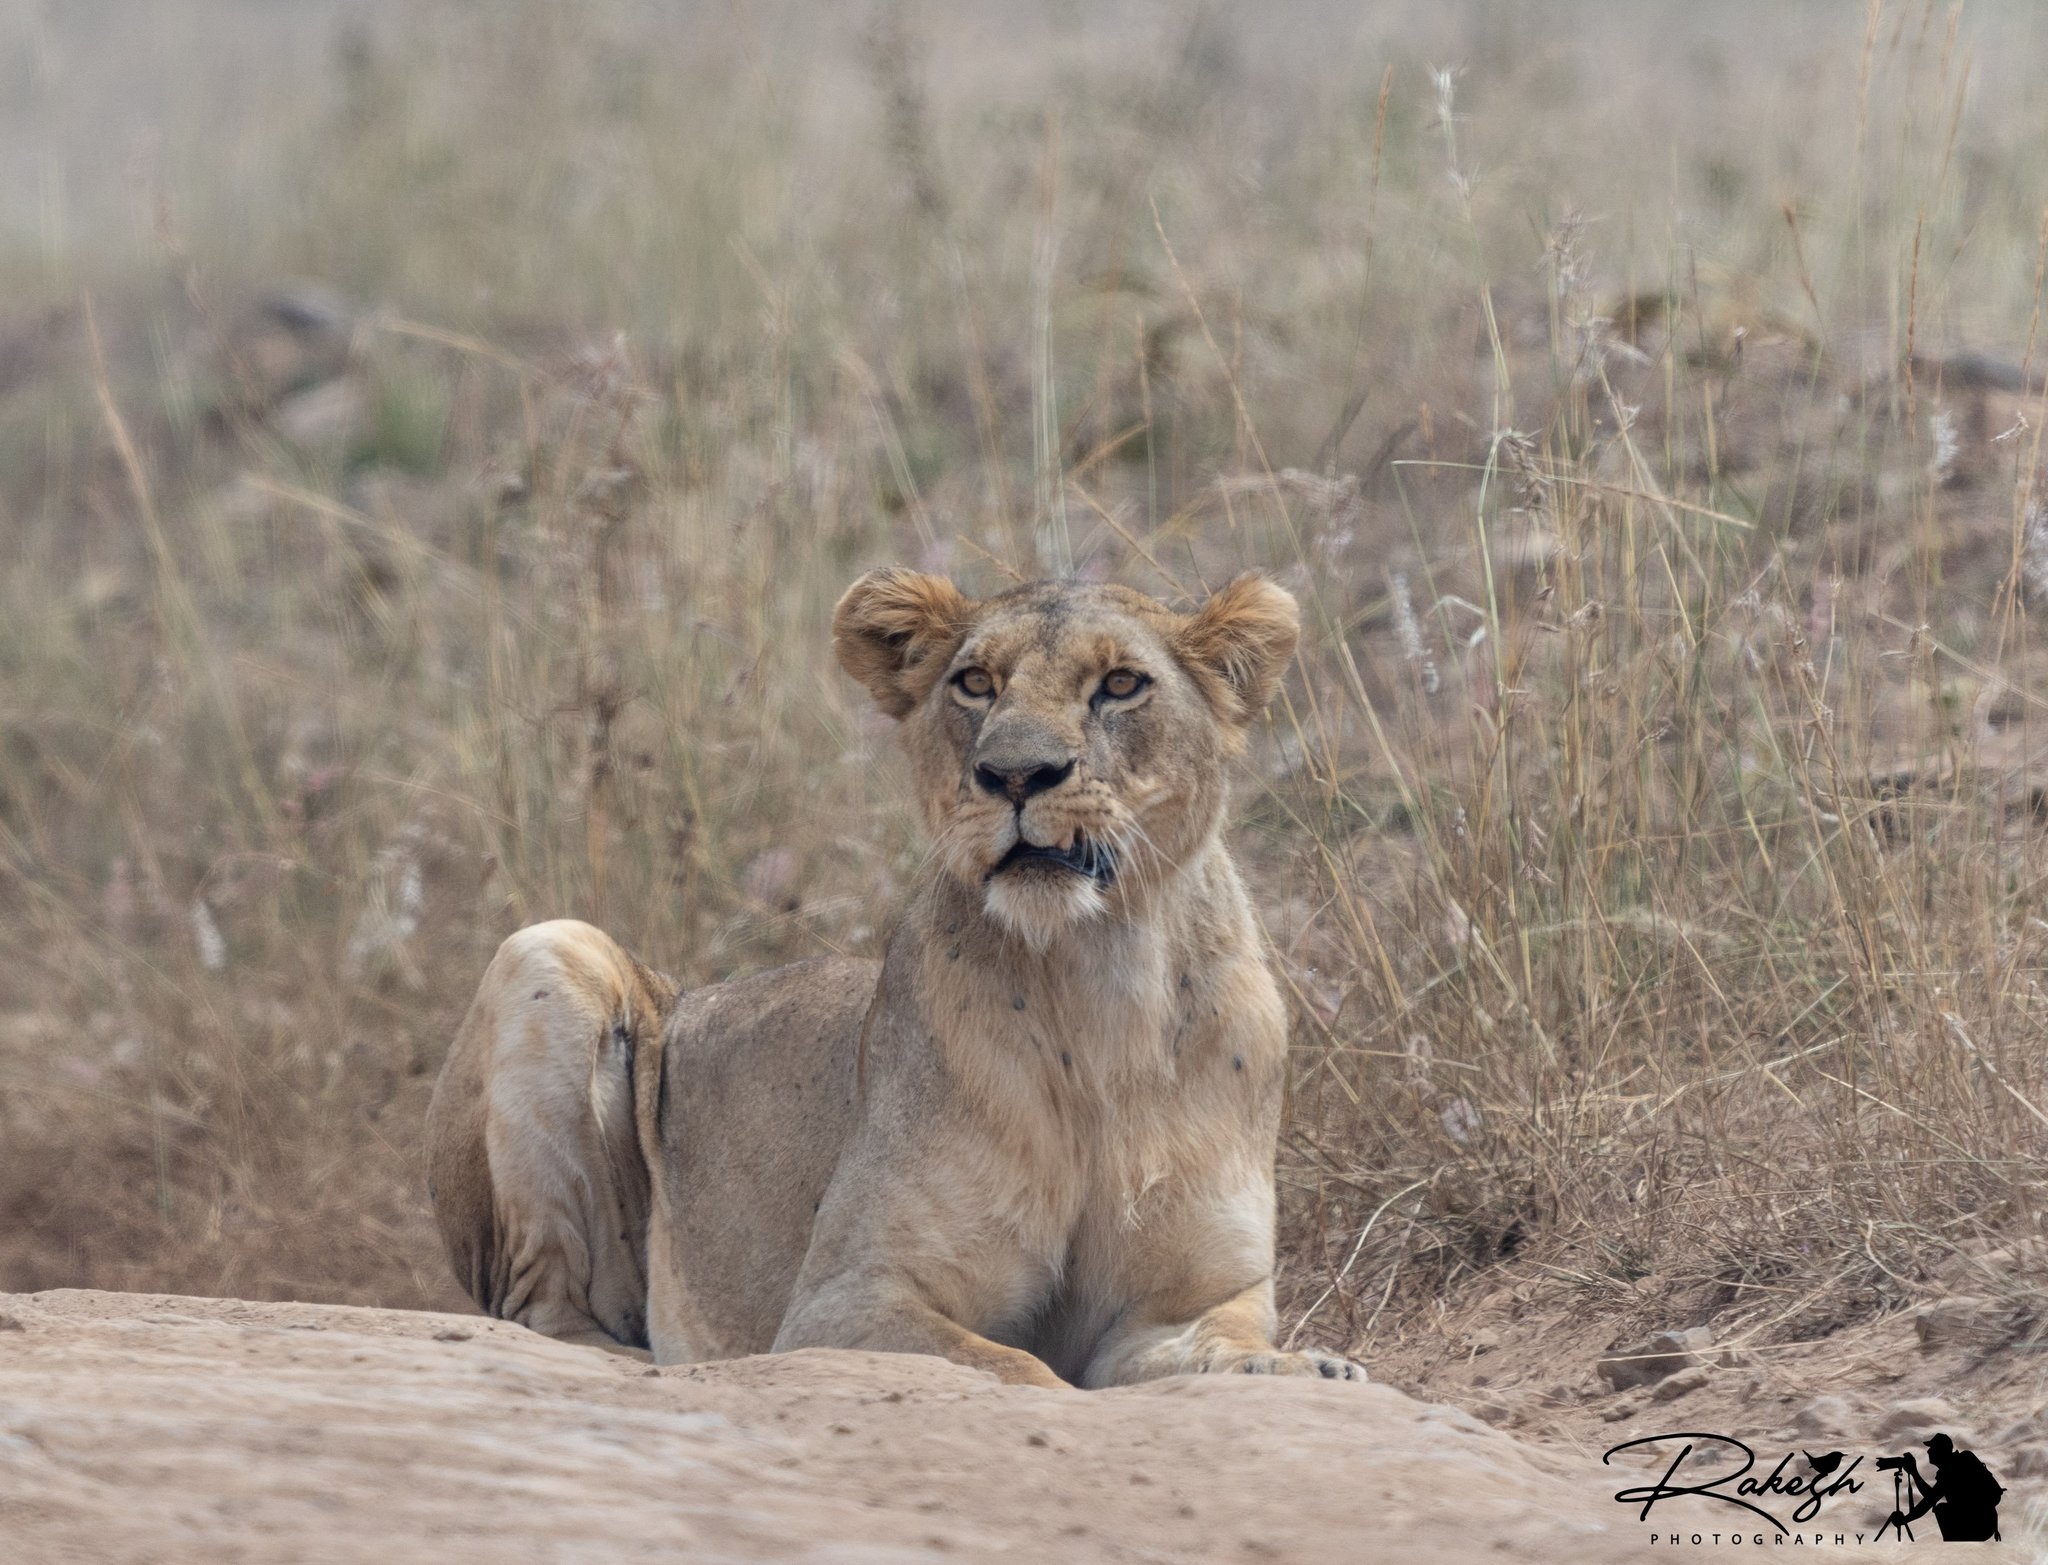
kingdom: Animalia
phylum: Chordata
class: Mammalia
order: Carnivora
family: Felidae
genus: Panthera
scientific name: Panthera leo
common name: Lion
